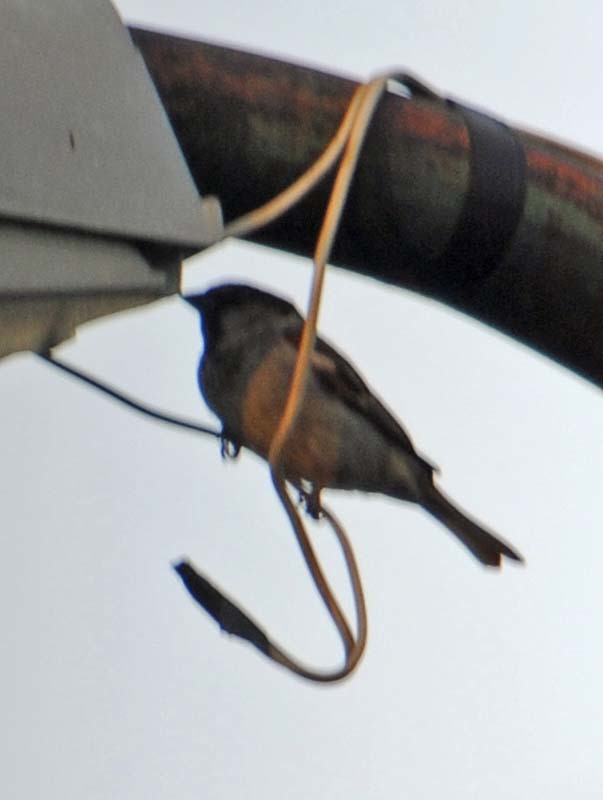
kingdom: Animalia
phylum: Chordata
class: Aves
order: Passeriformes
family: Passeridae
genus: Passer
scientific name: Passer domesticus
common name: House sparrow
